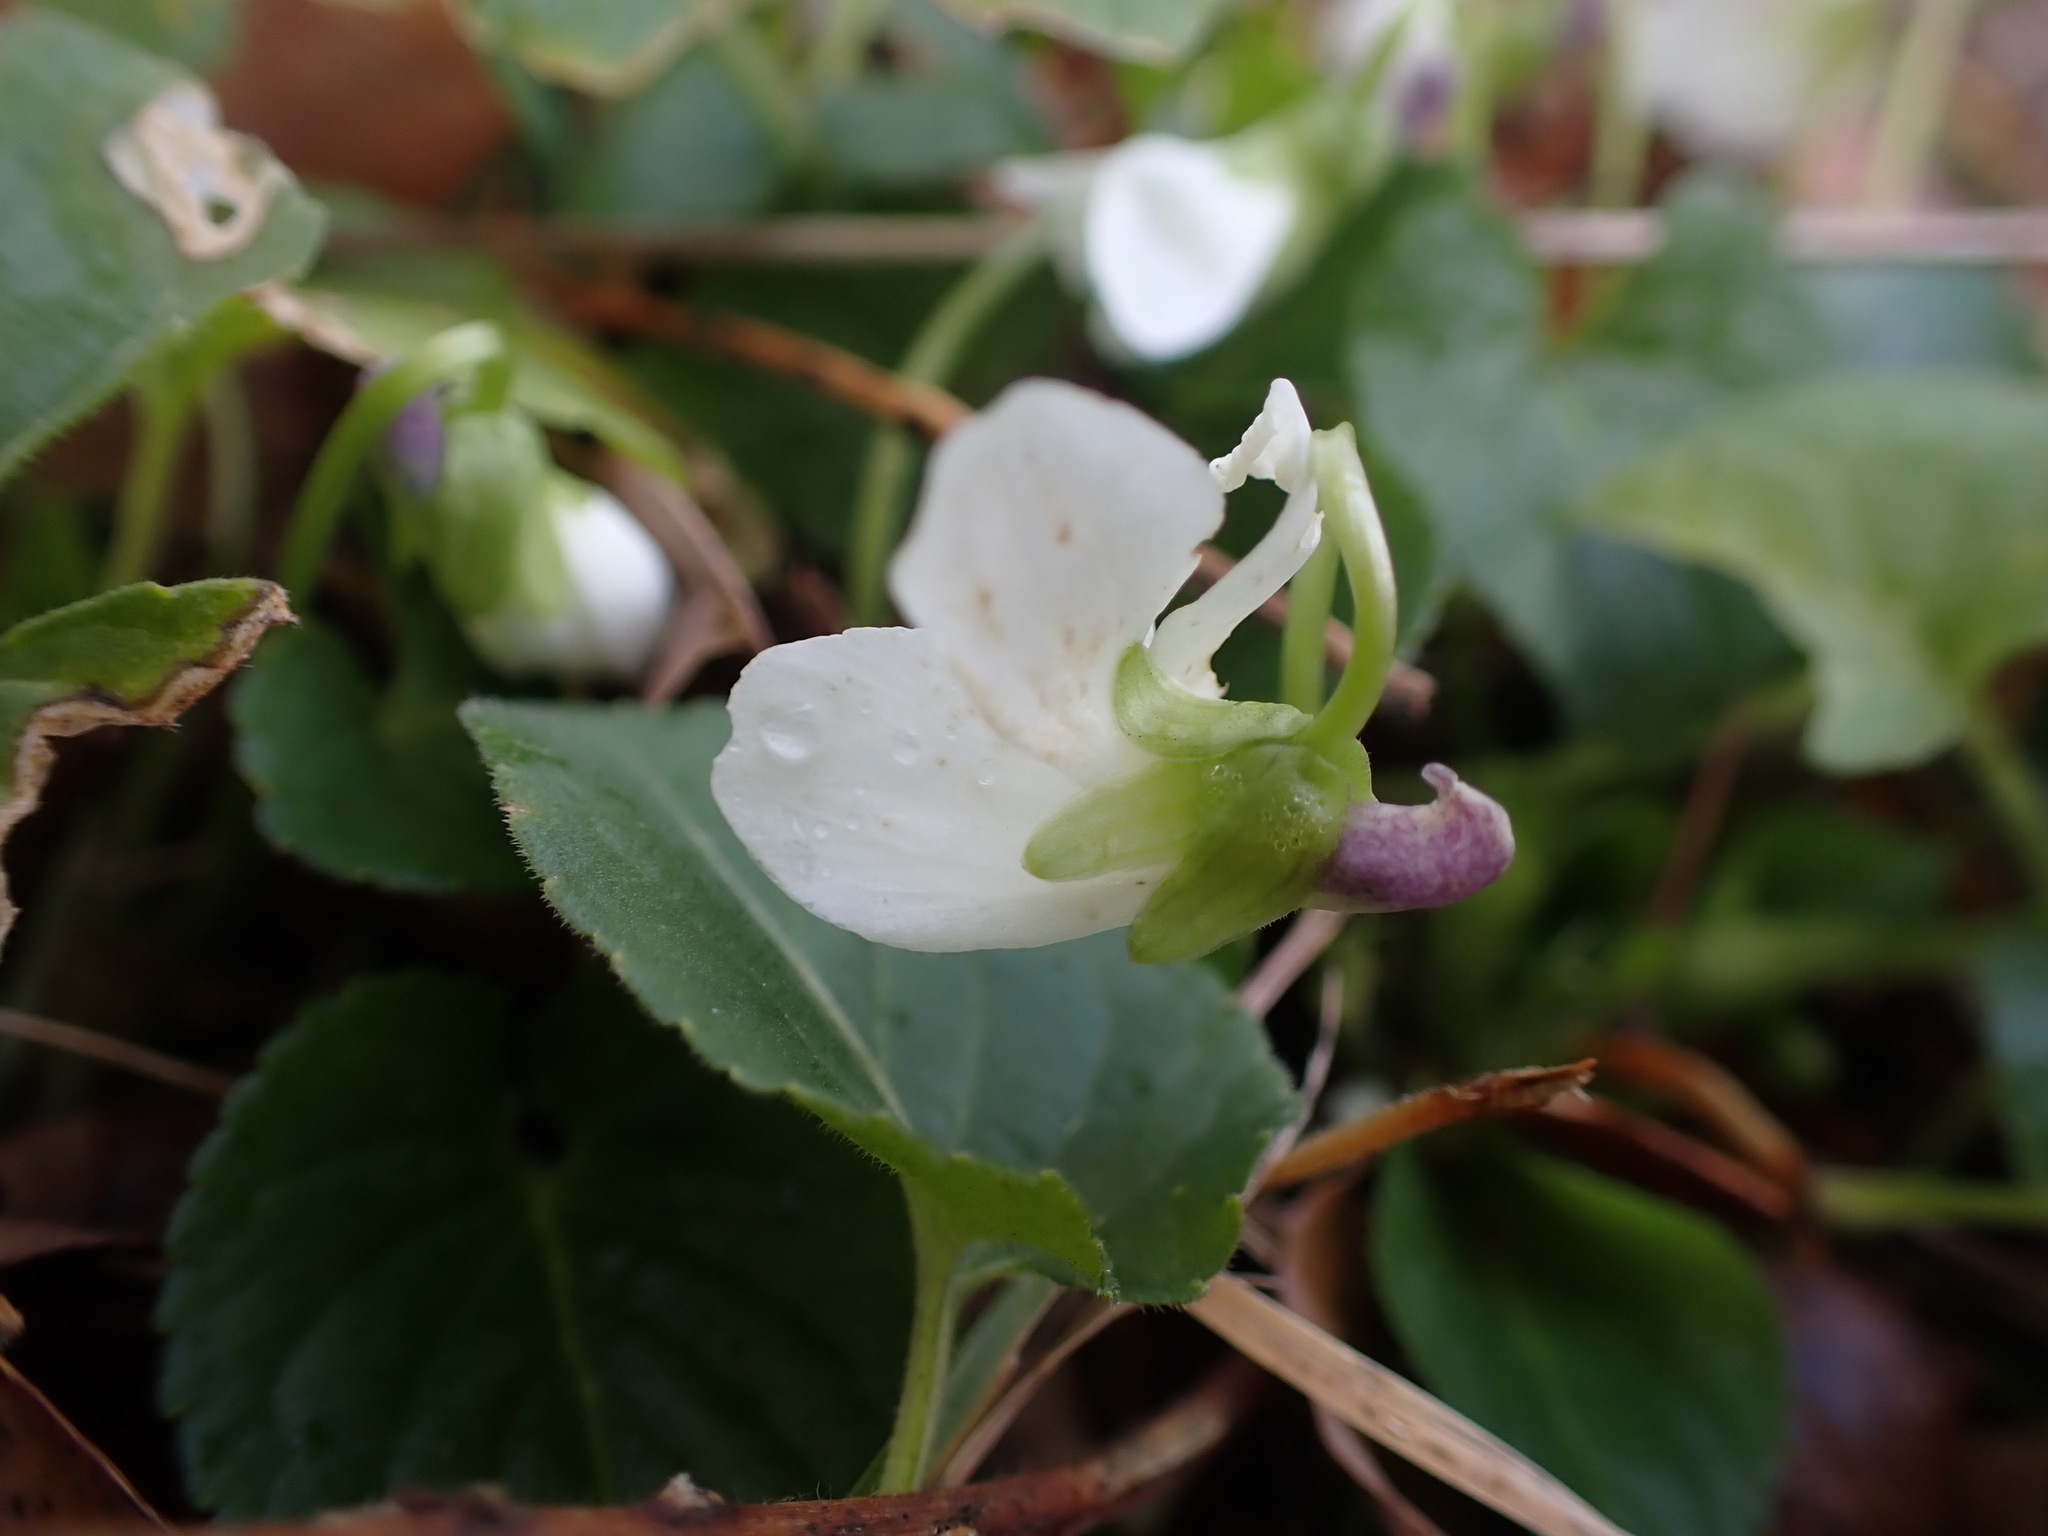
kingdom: Plantae
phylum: Tracheophyta
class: Magnoliopsida
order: Malpighiales
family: Violaceae
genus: Viola
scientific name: Viola alba
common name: White violet
